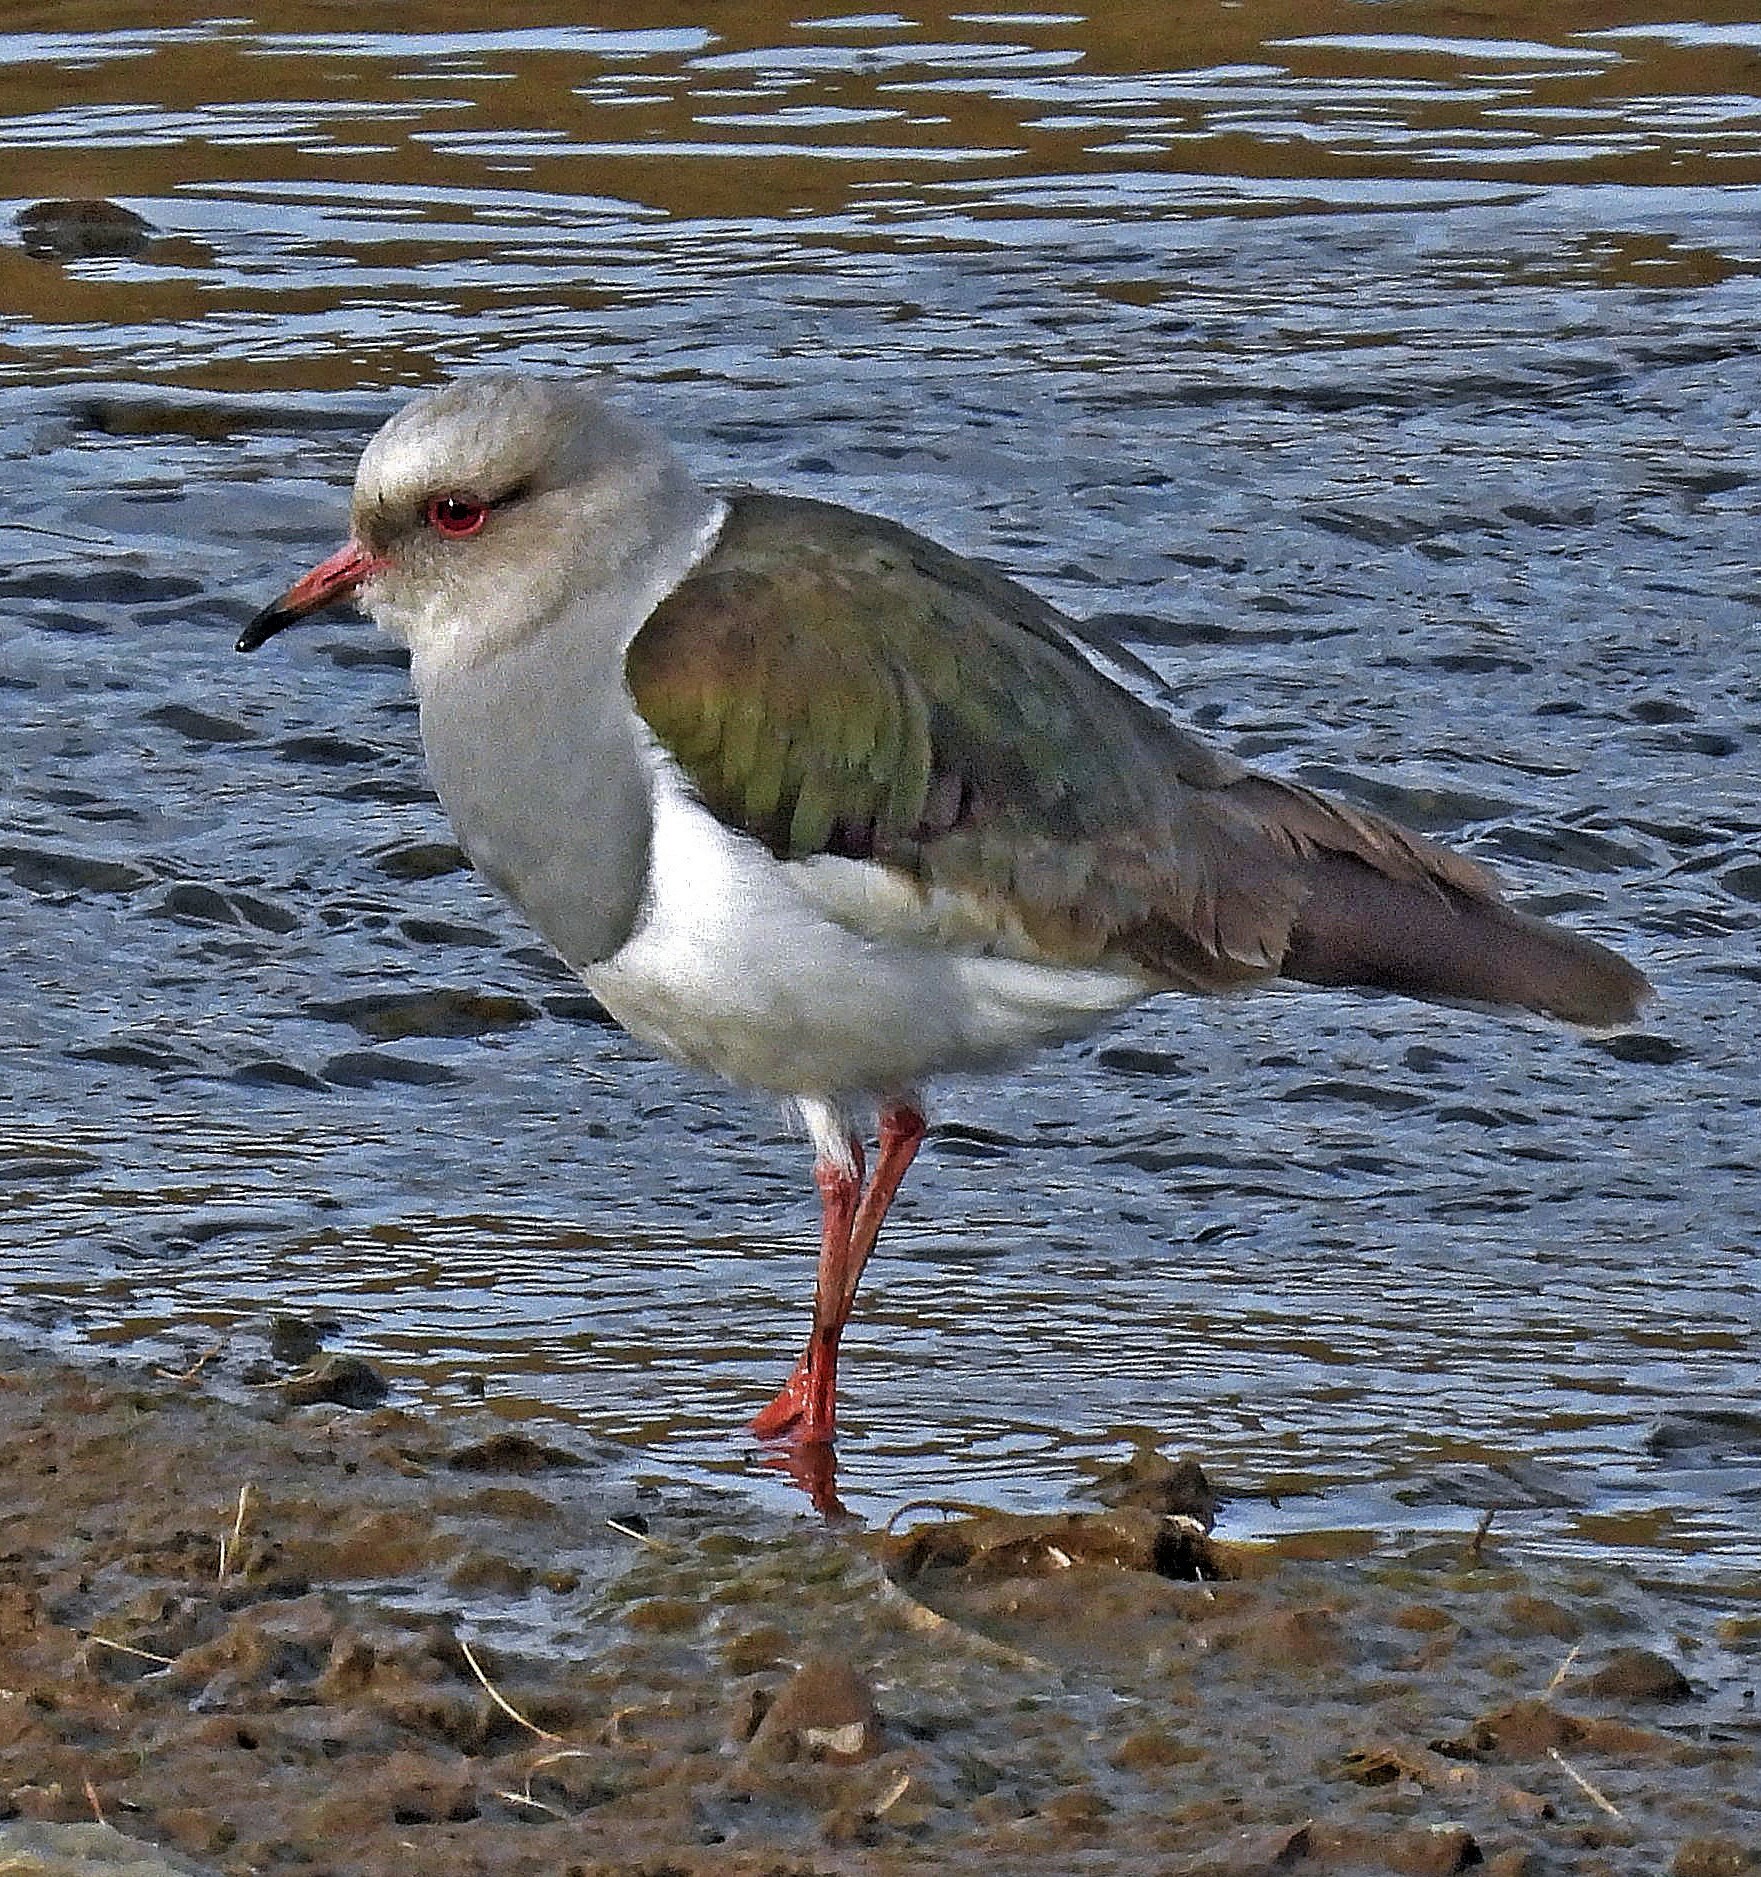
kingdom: Animalia
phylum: Chordata
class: Aves
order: Charadriiformes
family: Charadriidae
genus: Vanellus
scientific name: Vanellus resplendens
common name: Andean lapwing
